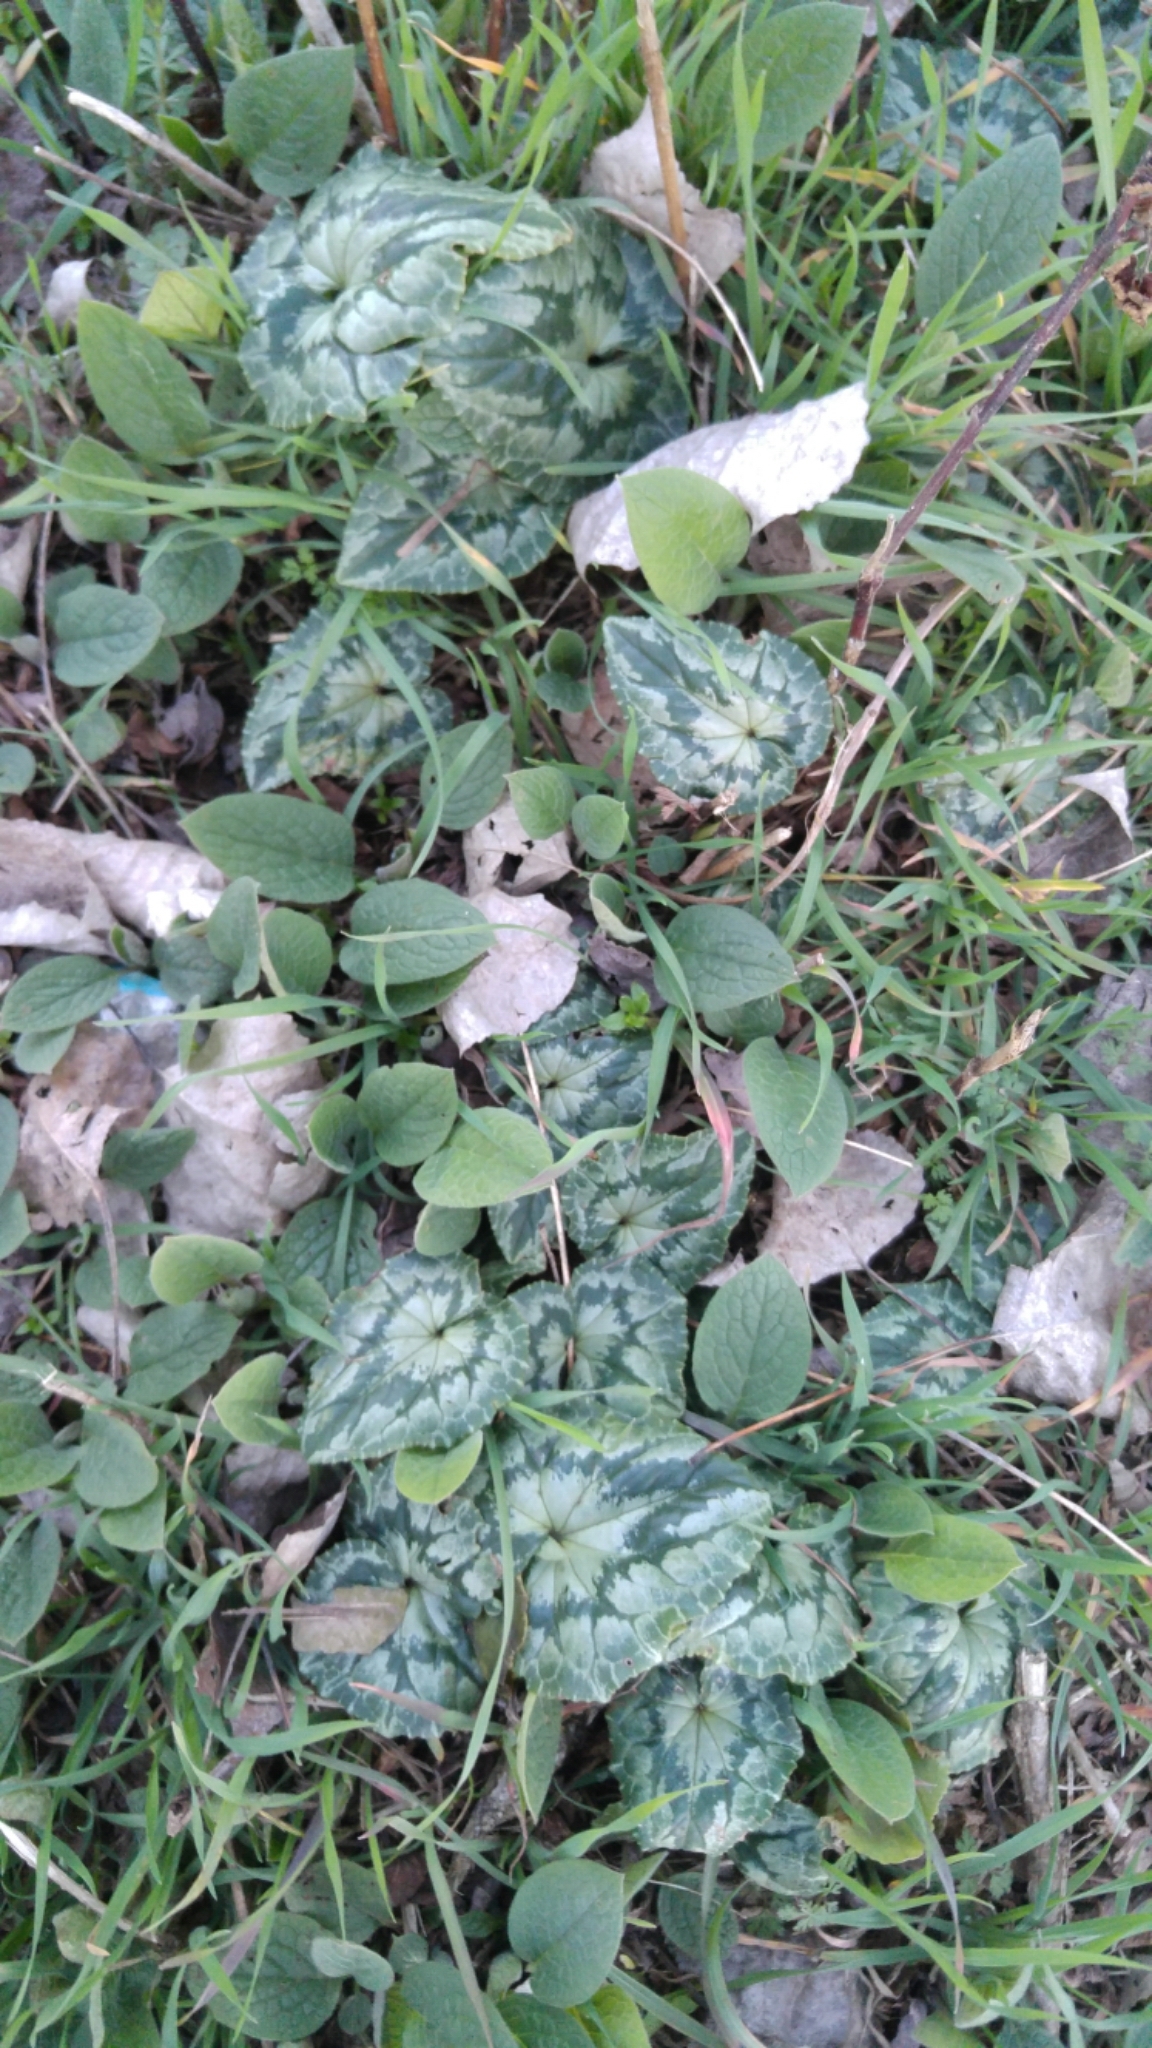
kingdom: Plantae
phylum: Tracheophyta
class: Magnoliopsida
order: Ericales
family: Primulaceae
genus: Cyclamen
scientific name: Cyclamen hederifolium
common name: Sowbread
